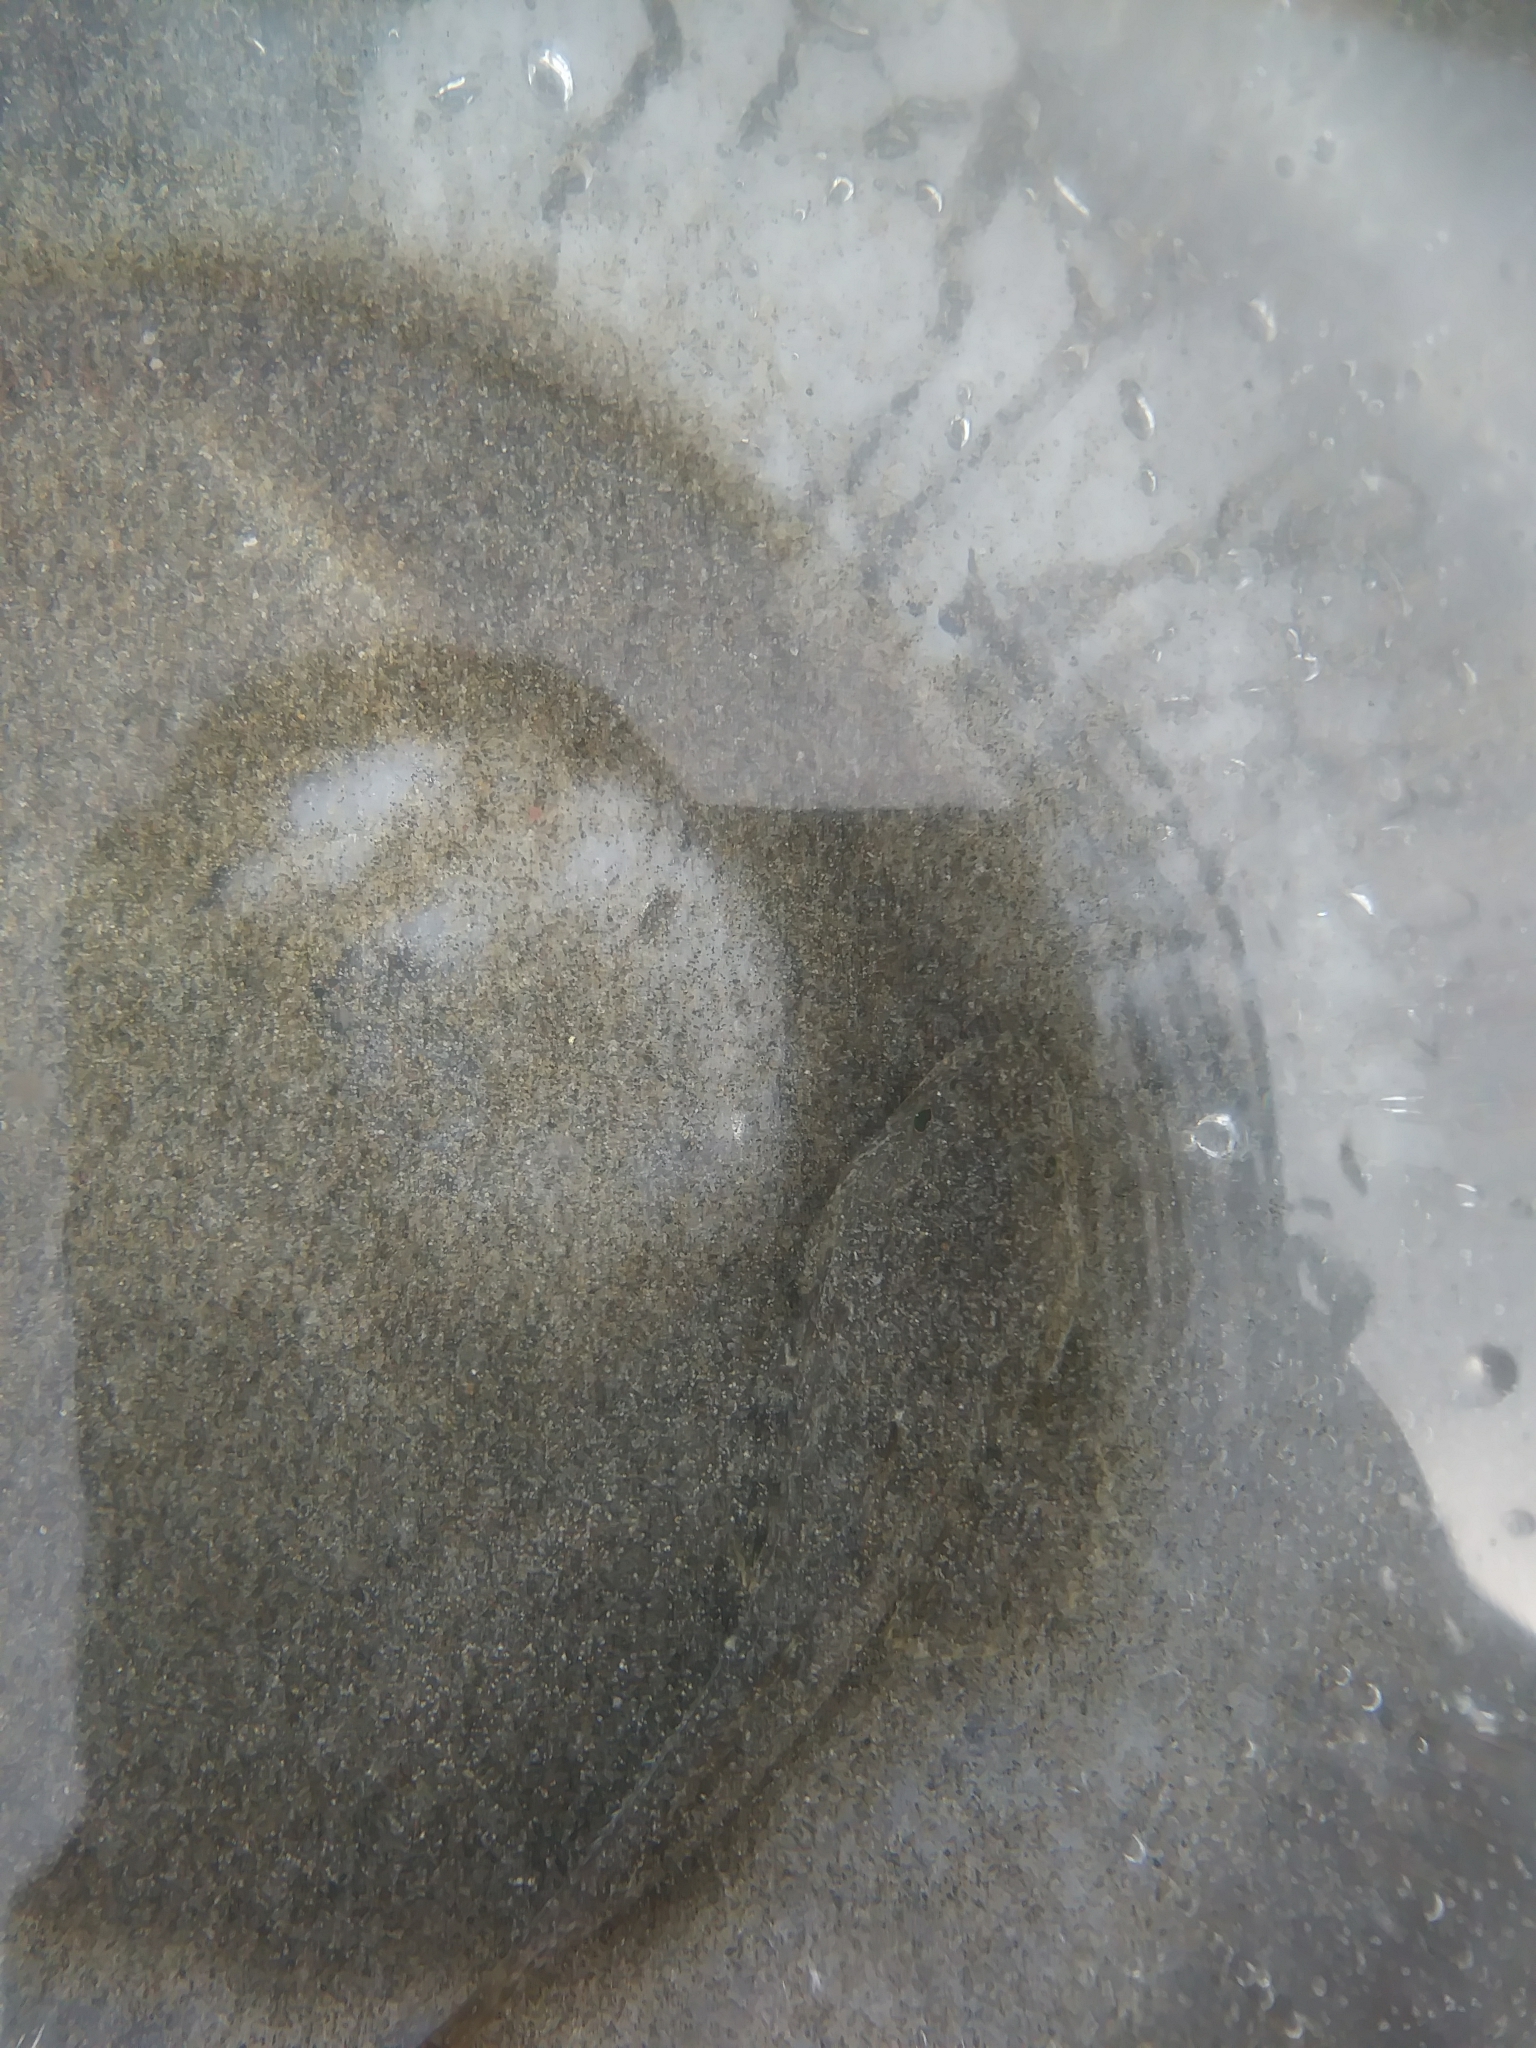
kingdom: Animalia
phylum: Chordata
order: Scorpaeniformes
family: Cottidae
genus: Leptocottus
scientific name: Leptocottus armatus
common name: Pacific staghorn sculpin
